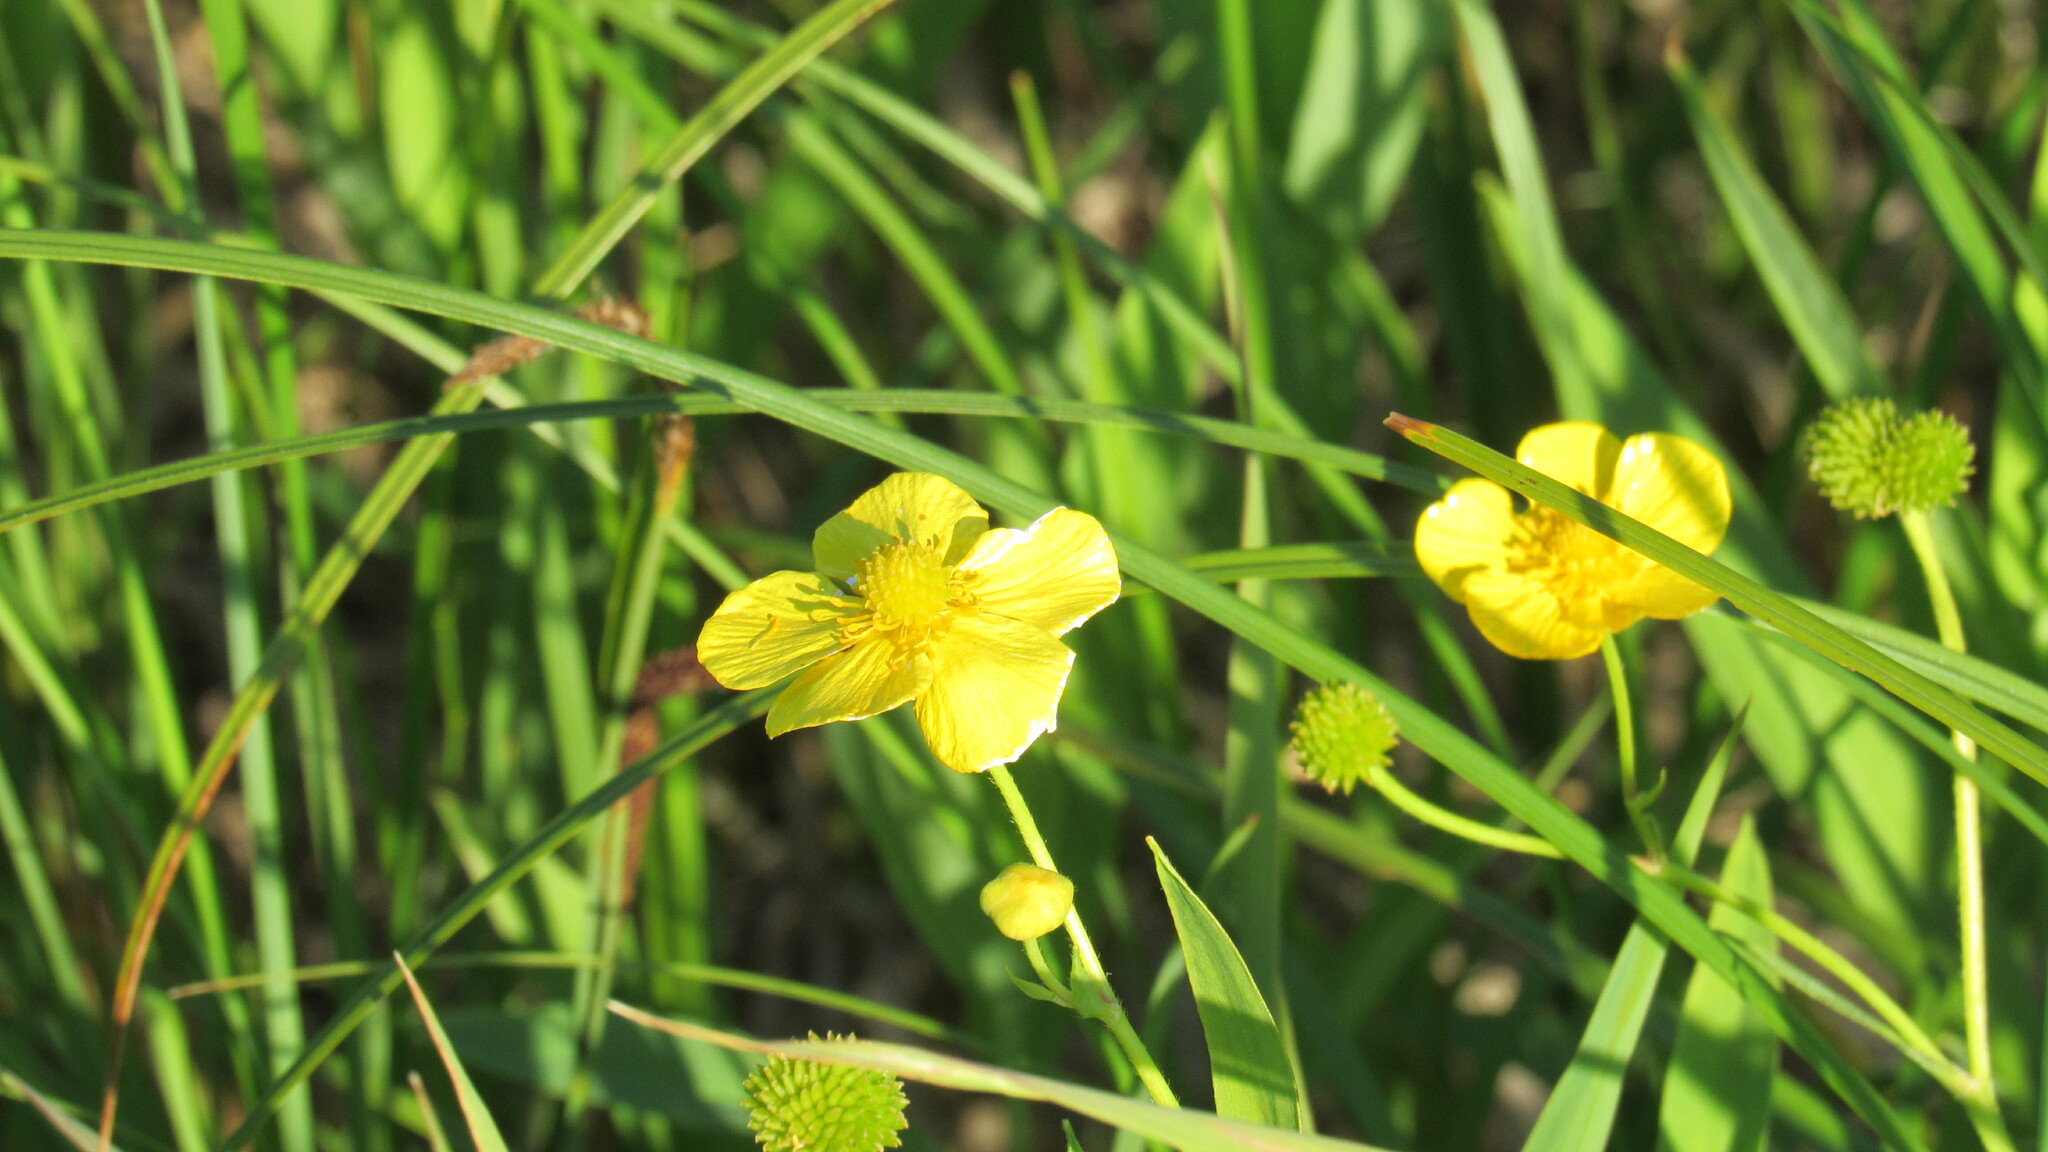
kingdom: Plantae
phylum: Tracheophyta
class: Magnoliopsida
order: Ranunculales
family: Ranunculaceae
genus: Ranunculus
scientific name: Ranunculus lingua
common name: Greater spearwort
